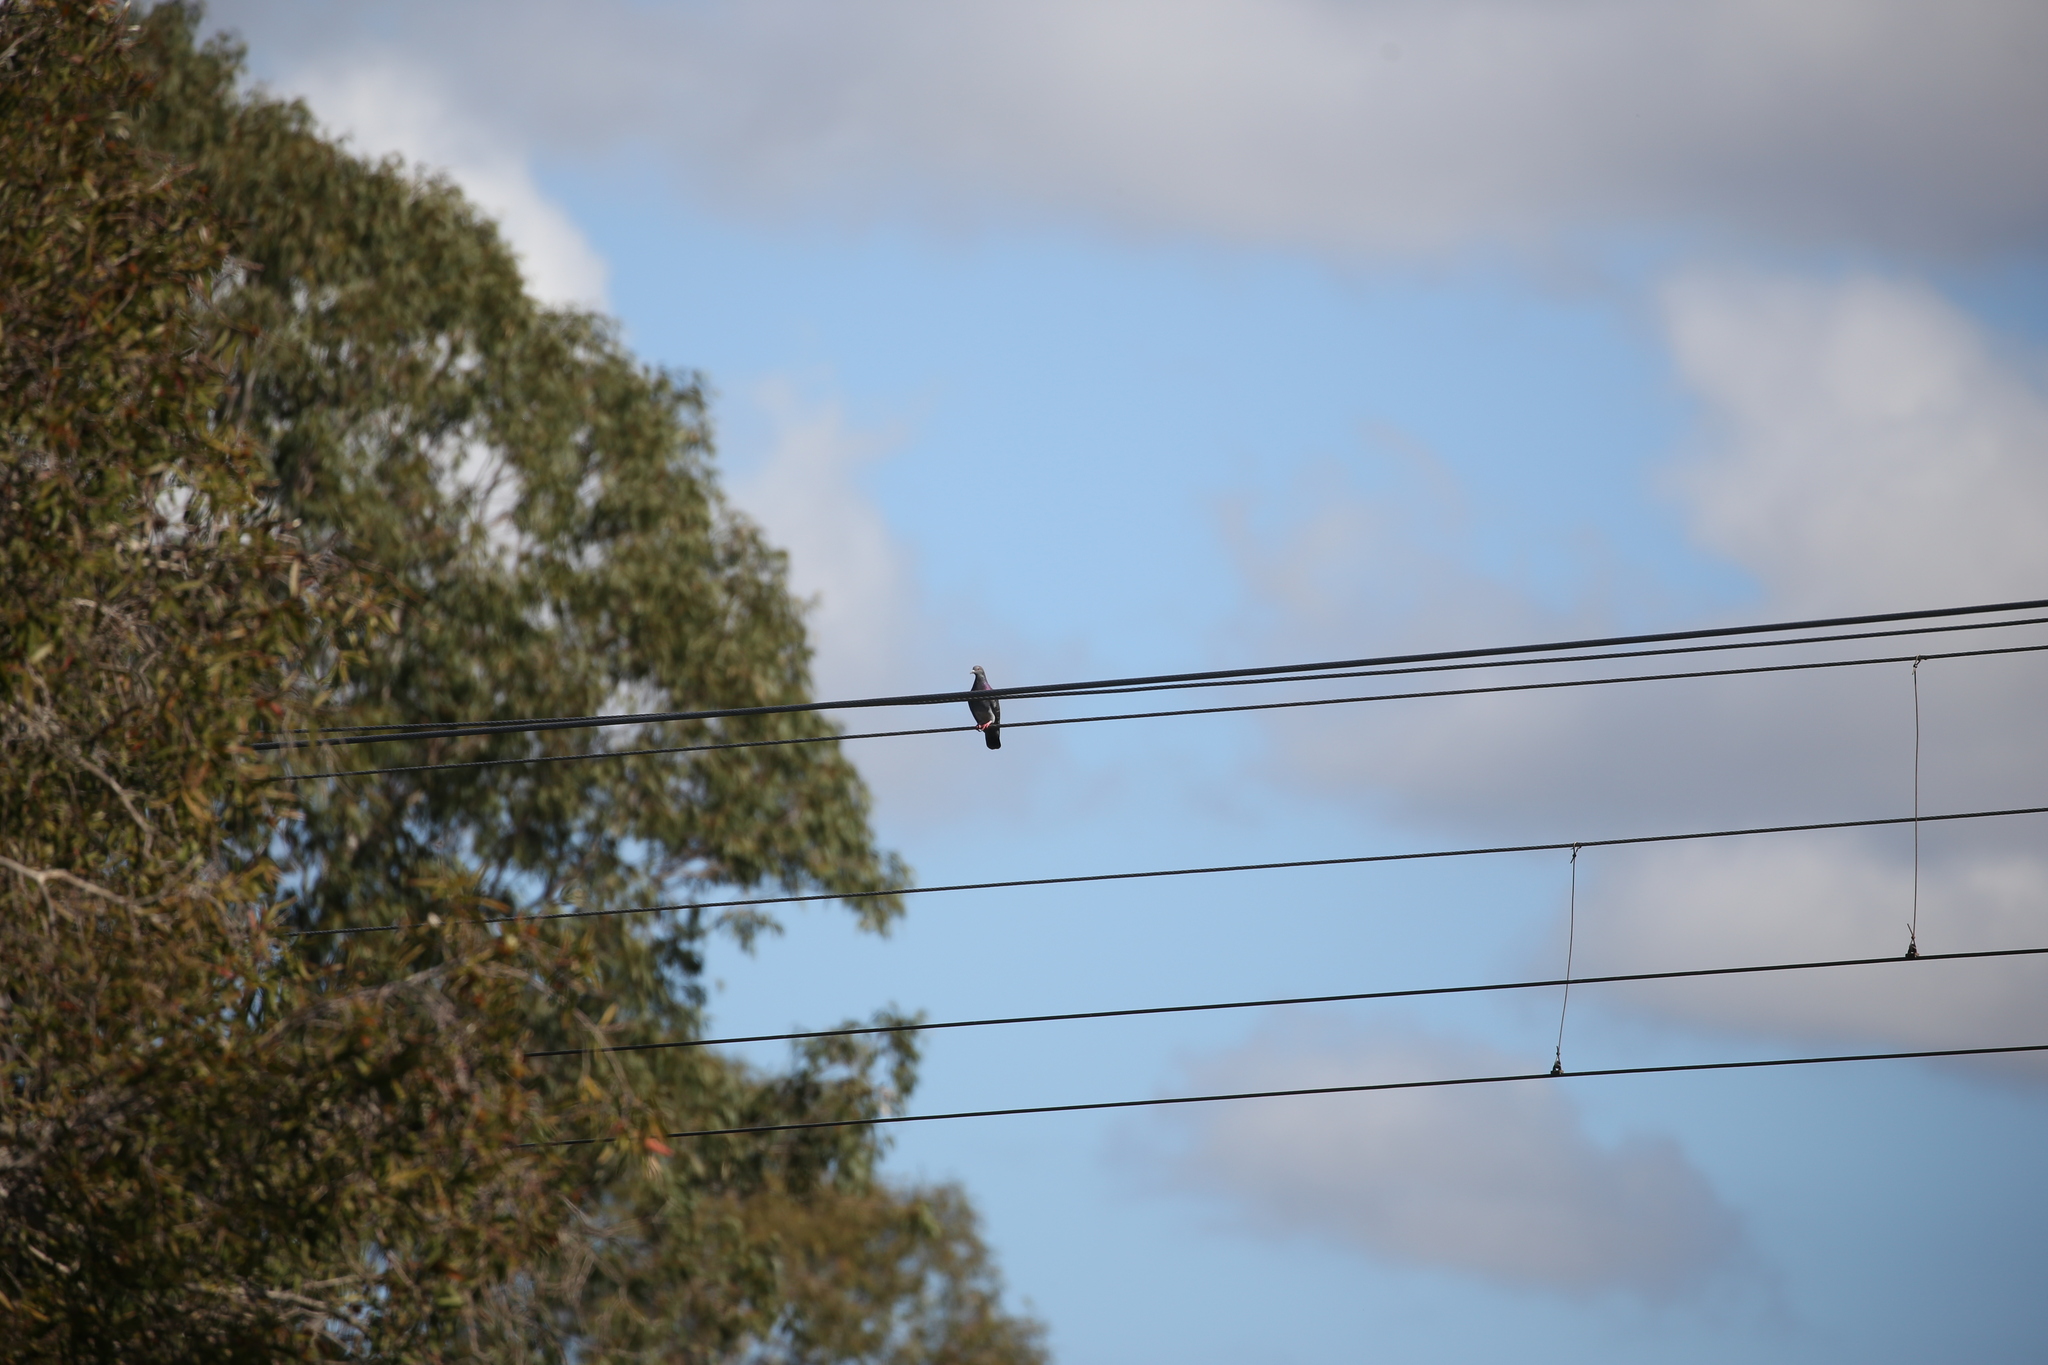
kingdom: Animalia
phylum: Chordata
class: Aves
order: Columbiformes
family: Columbidae
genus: Columba
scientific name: Columba livia
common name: Rock pigeon
